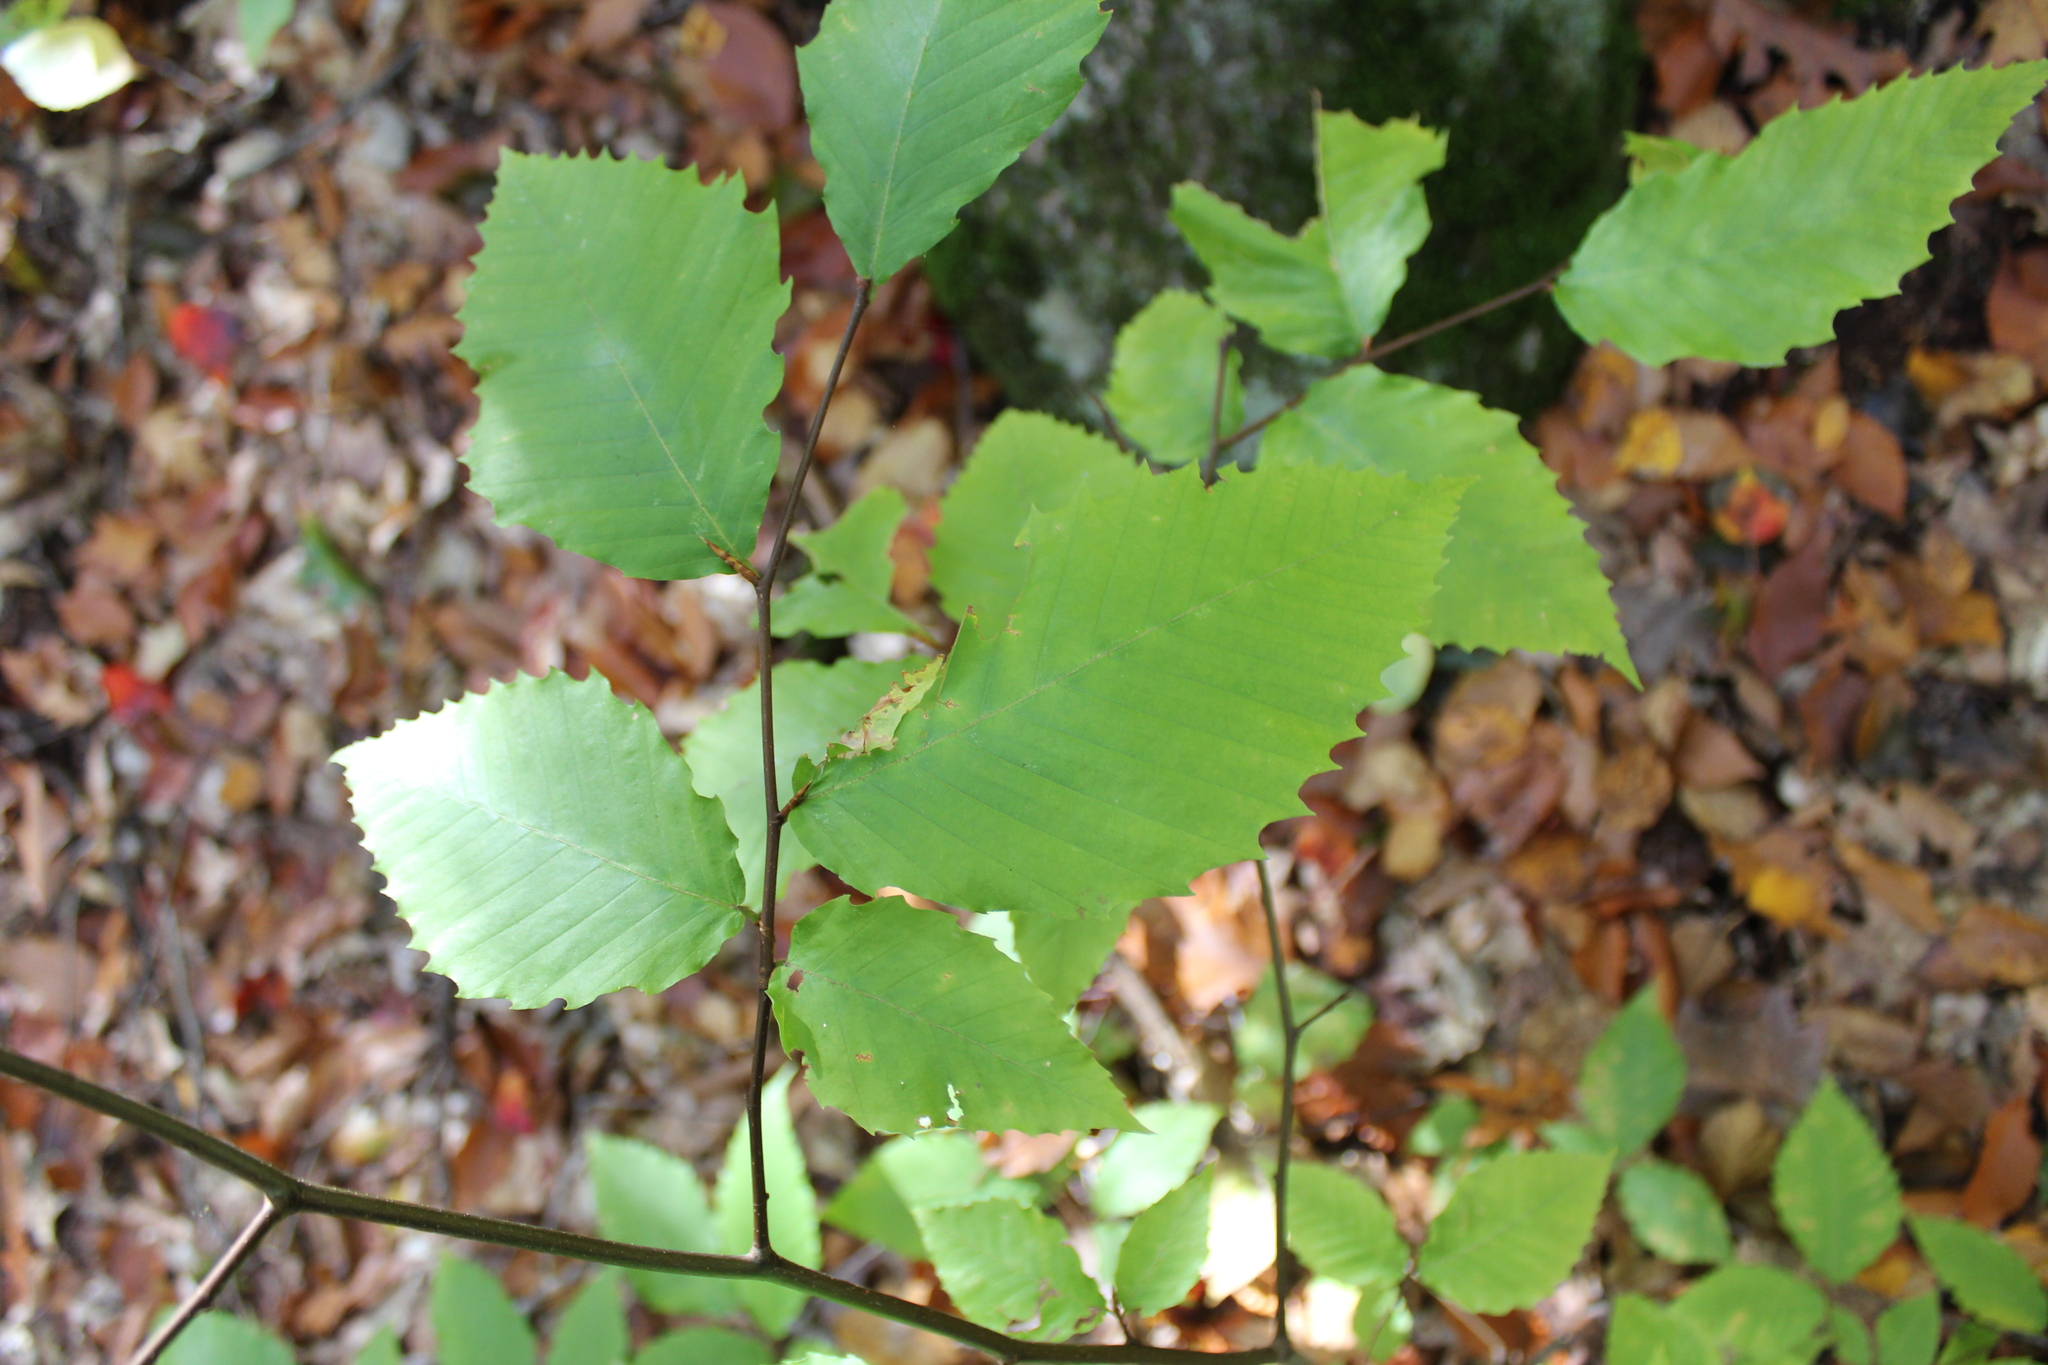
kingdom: Plantae
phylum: Tracheophyta
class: Magnoliopsida
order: Fagales
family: Fagaceae
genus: Fagus
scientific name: Fagus grandifolia
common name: American beech
